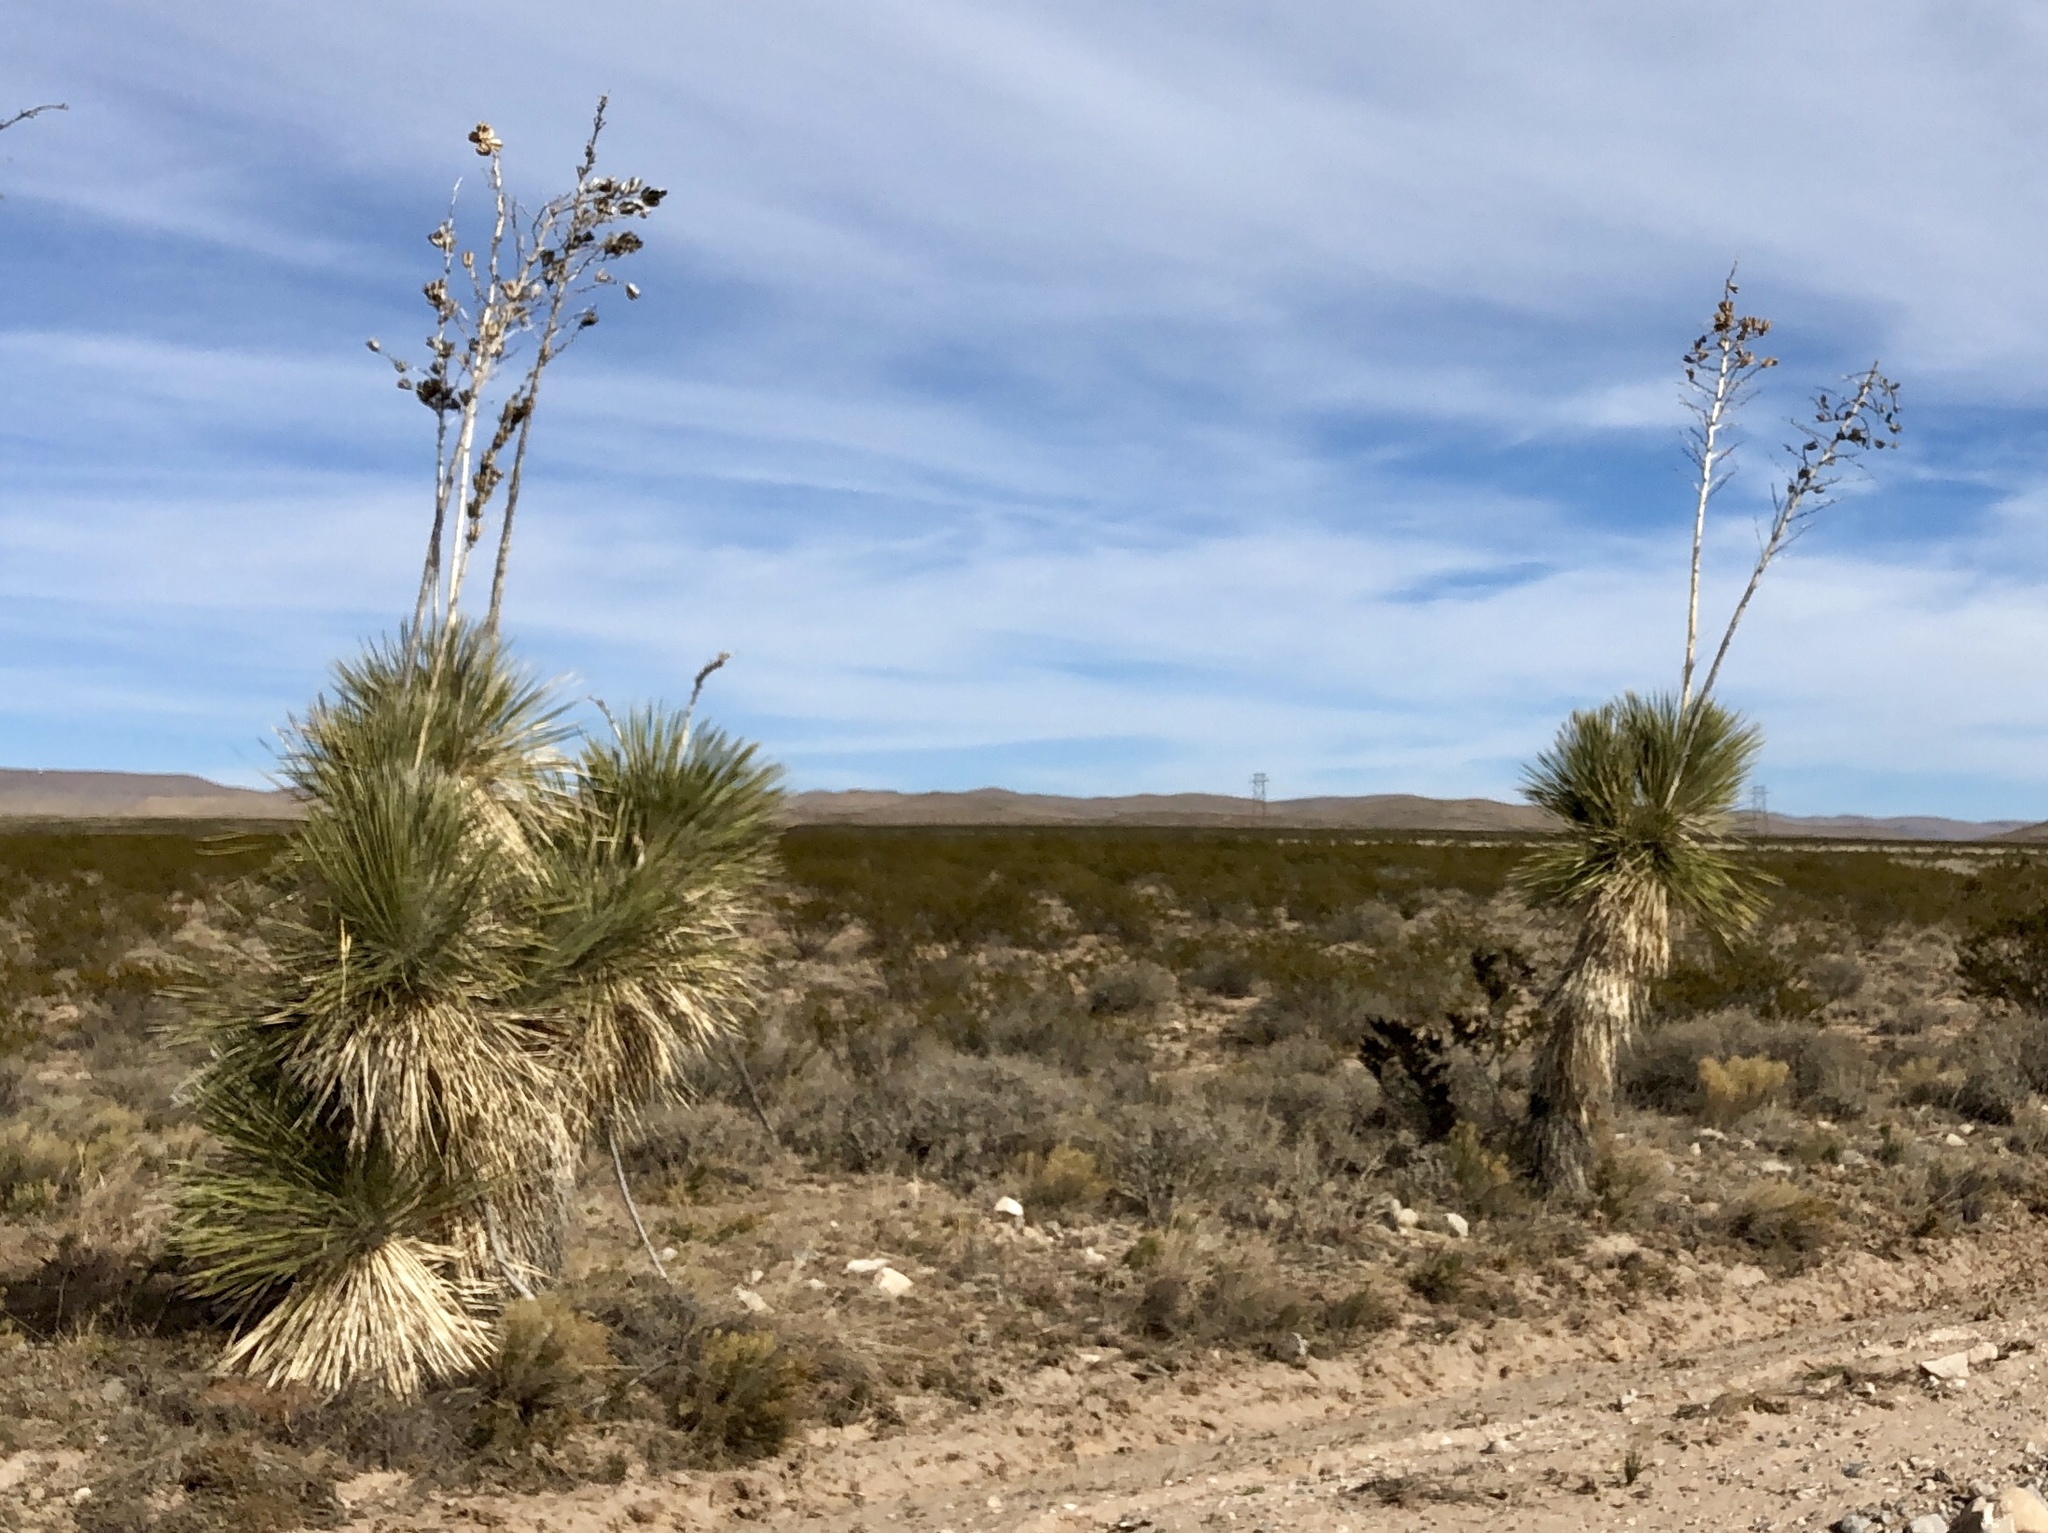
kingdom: Plantae
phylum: Tracheophyta
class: Liliopsida
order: Asparagales
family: Asparagaceae
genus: Yucca
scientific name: Yucca elata
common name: Palmella
